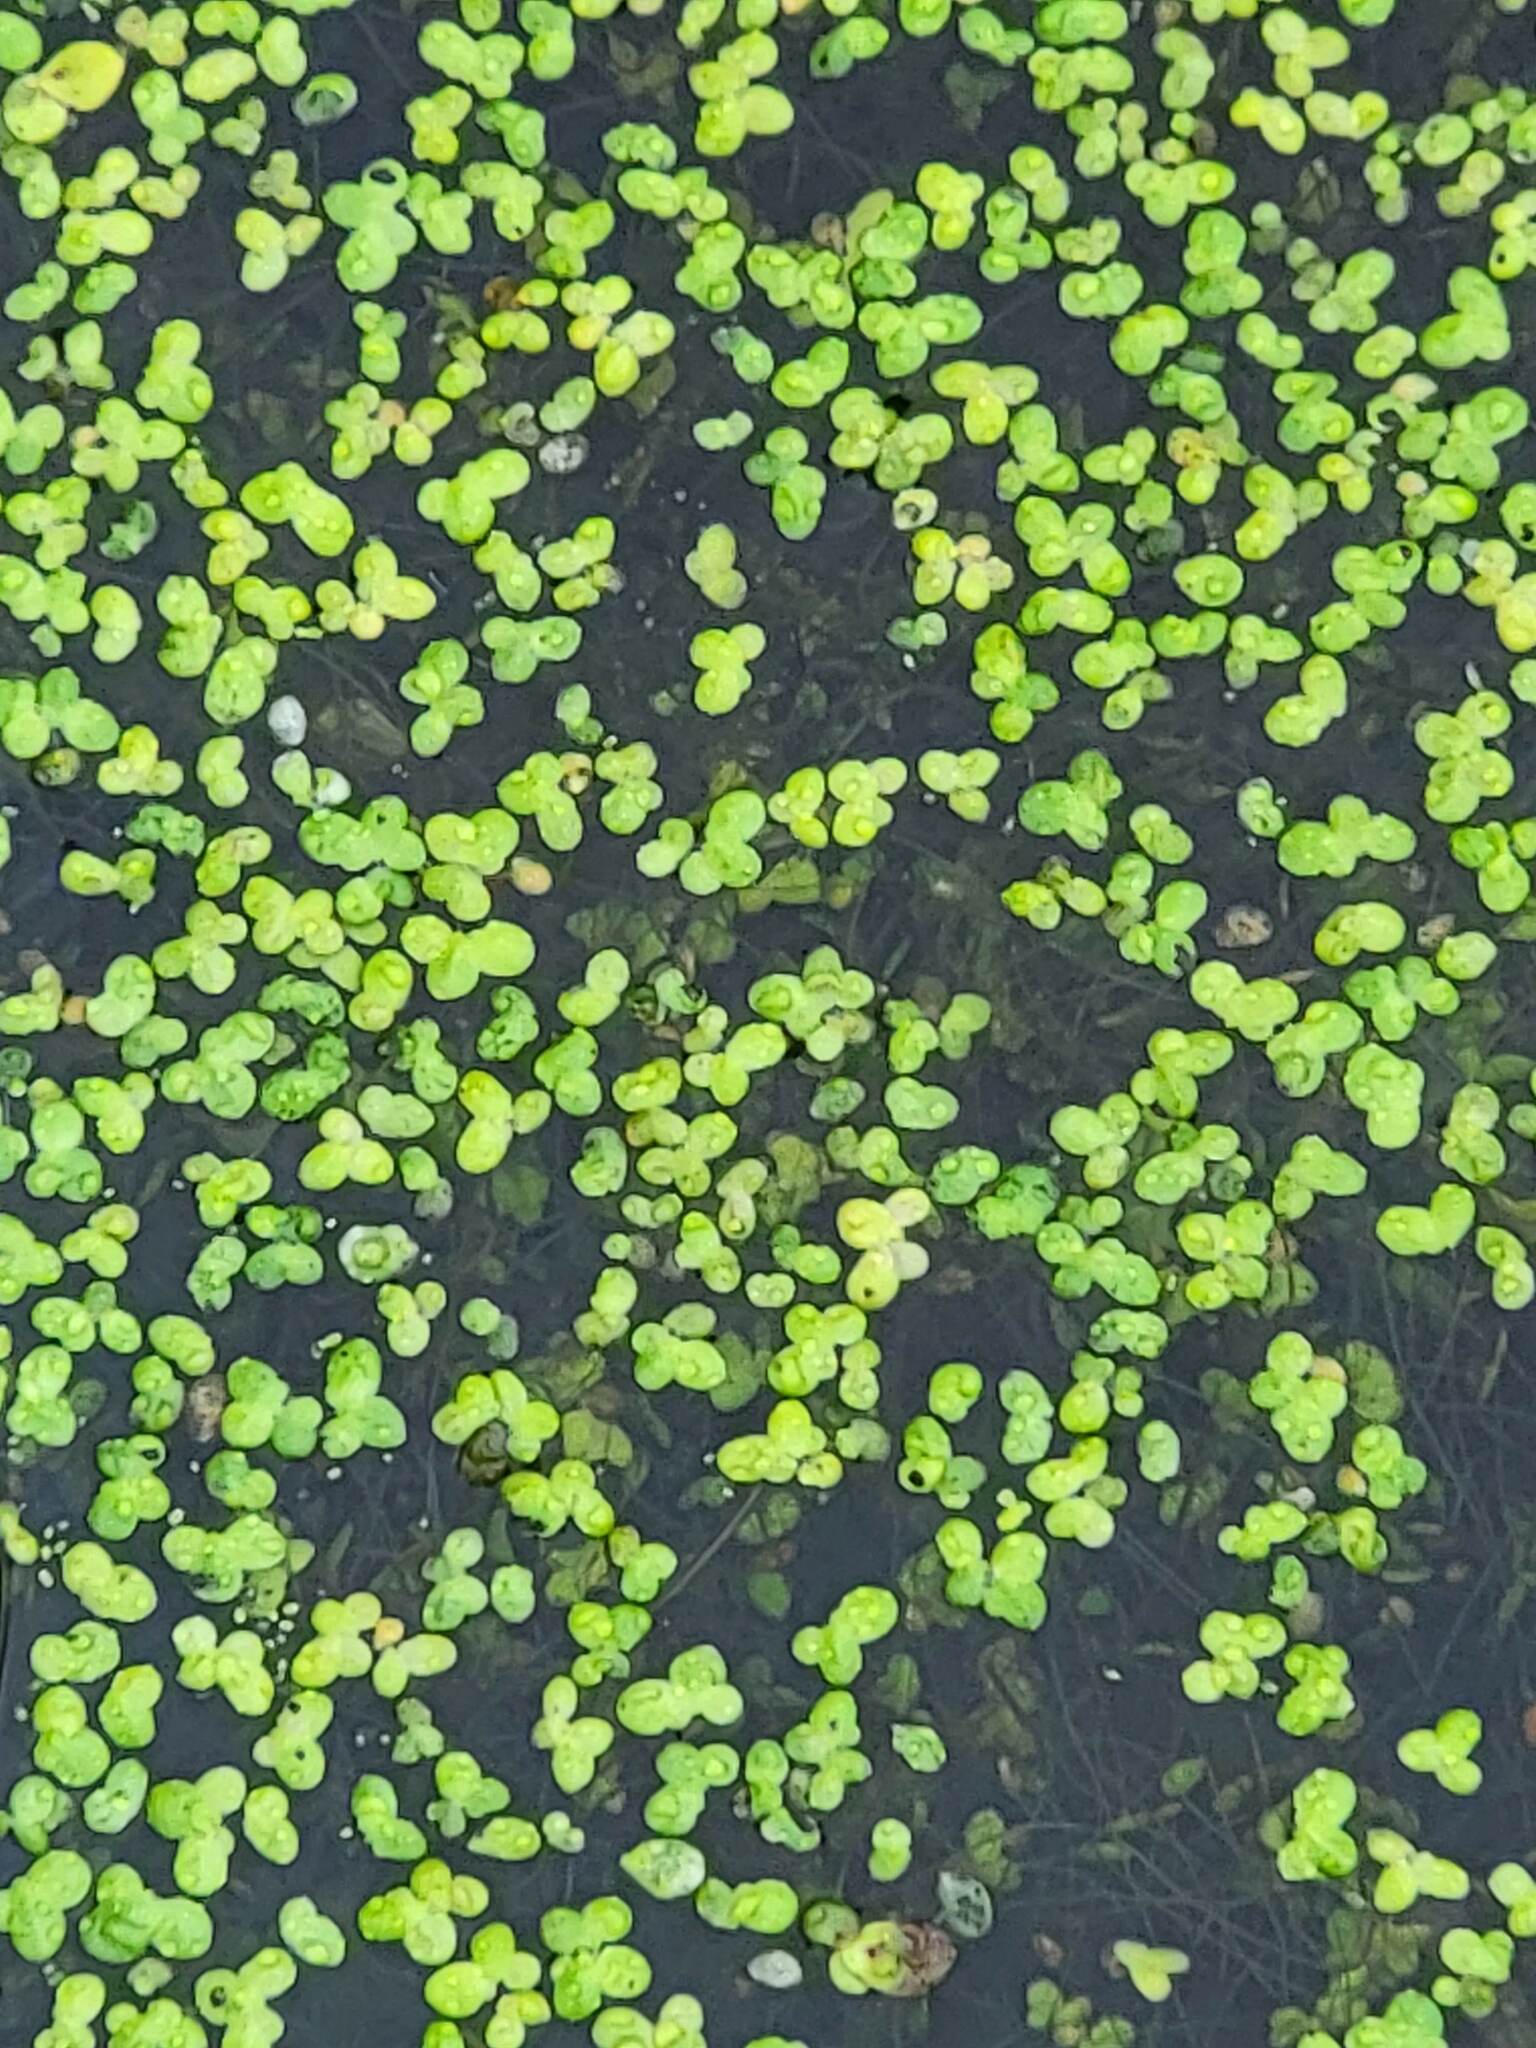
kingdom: Plantae
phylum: Tracheophyta
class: Liliopsida
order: Alismatales
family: Araceae
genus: Lemna
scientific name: Lemna minor
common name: Common duckweed
